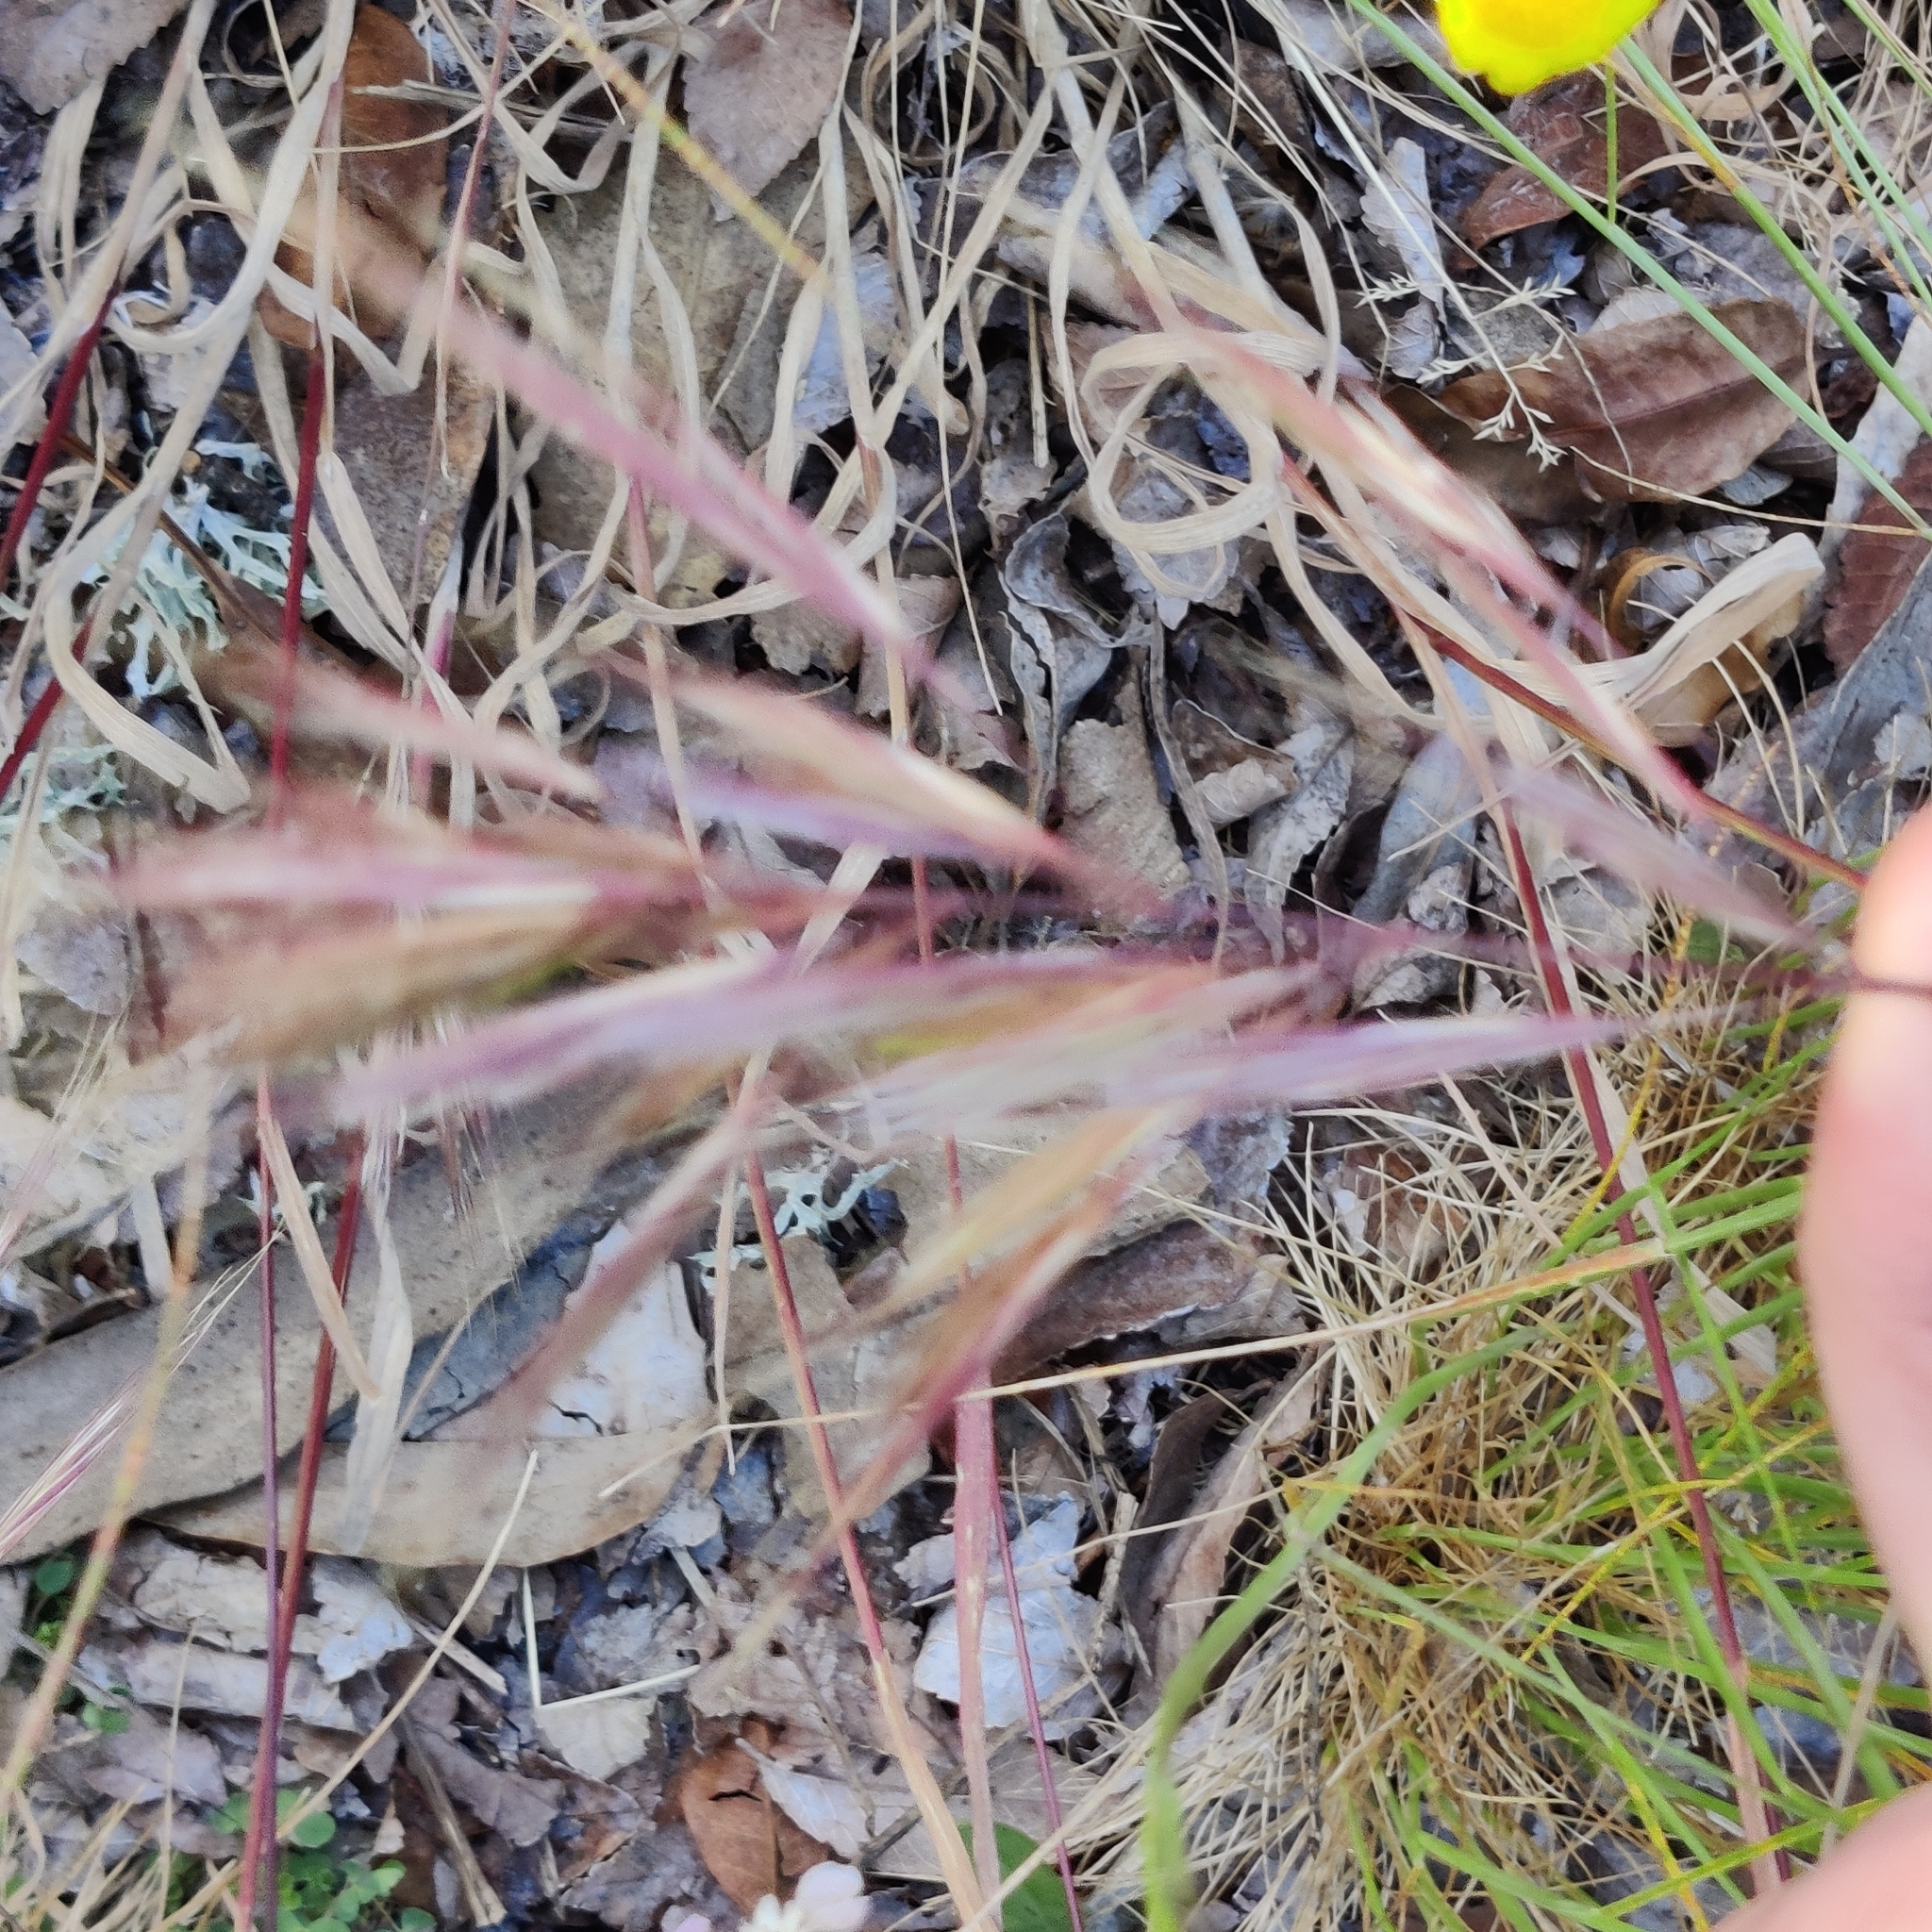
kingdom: Plantae
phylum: Tracheophyta
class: Liliopsida
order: Poales
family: Poaceae
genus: Bromus
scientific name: Bromus diandrus
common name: Ripgut brome
